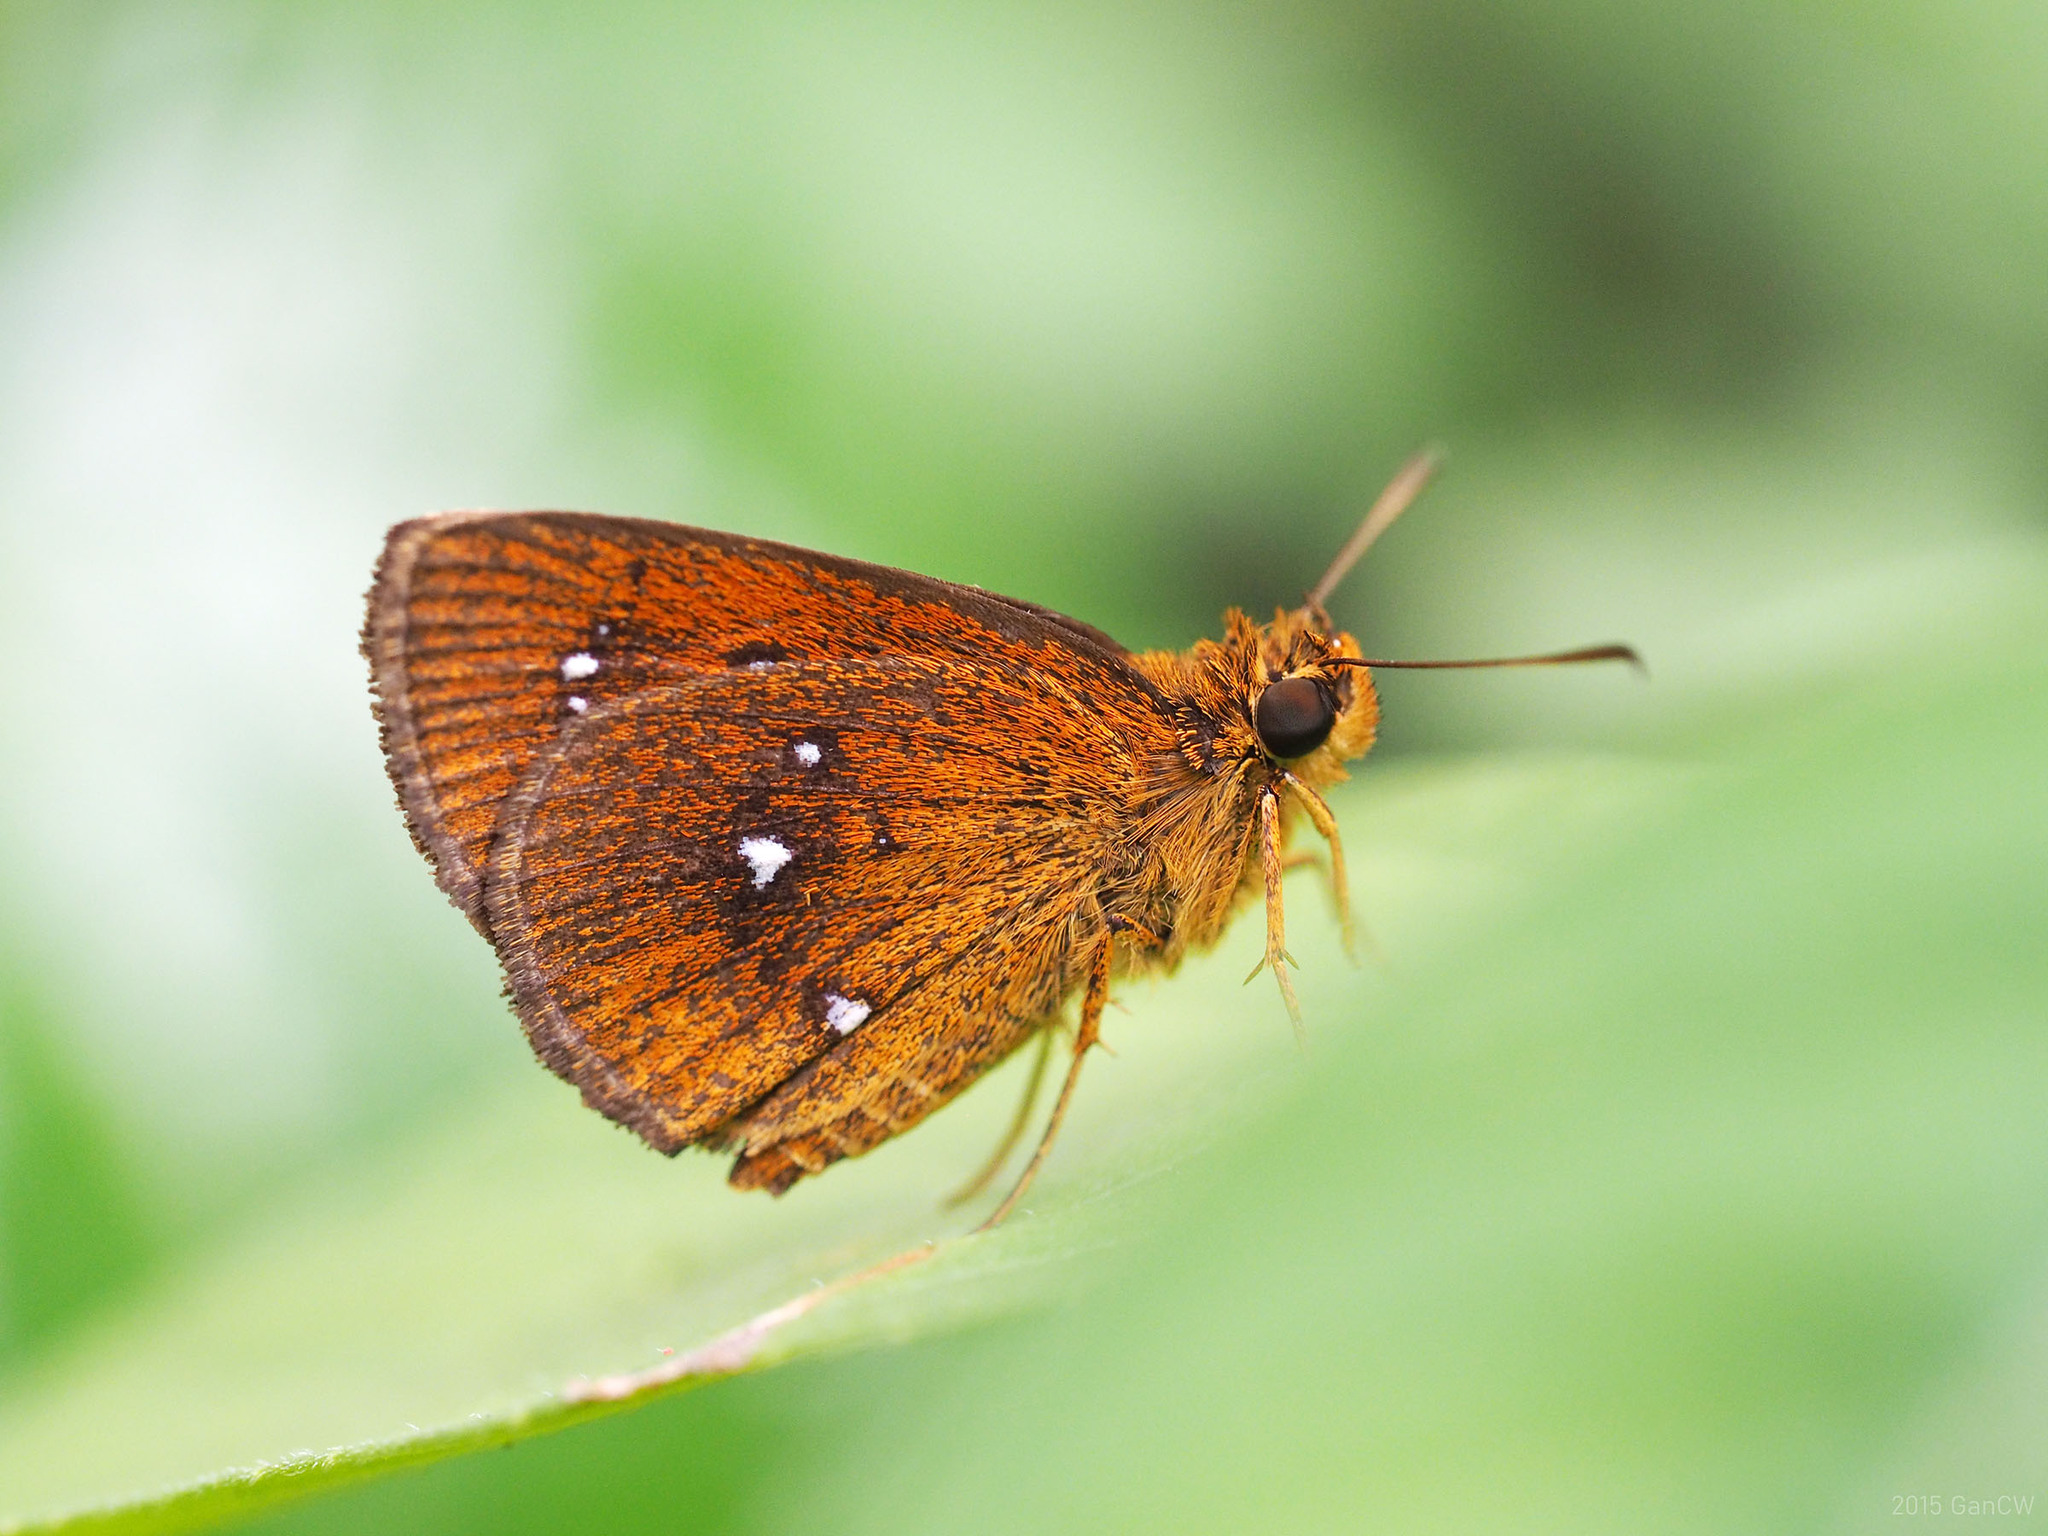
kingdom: Animalia
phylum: Arthropoda
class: Insecta
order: Lepidoptera
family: Hesperiidae
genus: Iambrix
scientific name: Iambrix salsala
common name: Chestnut bob
